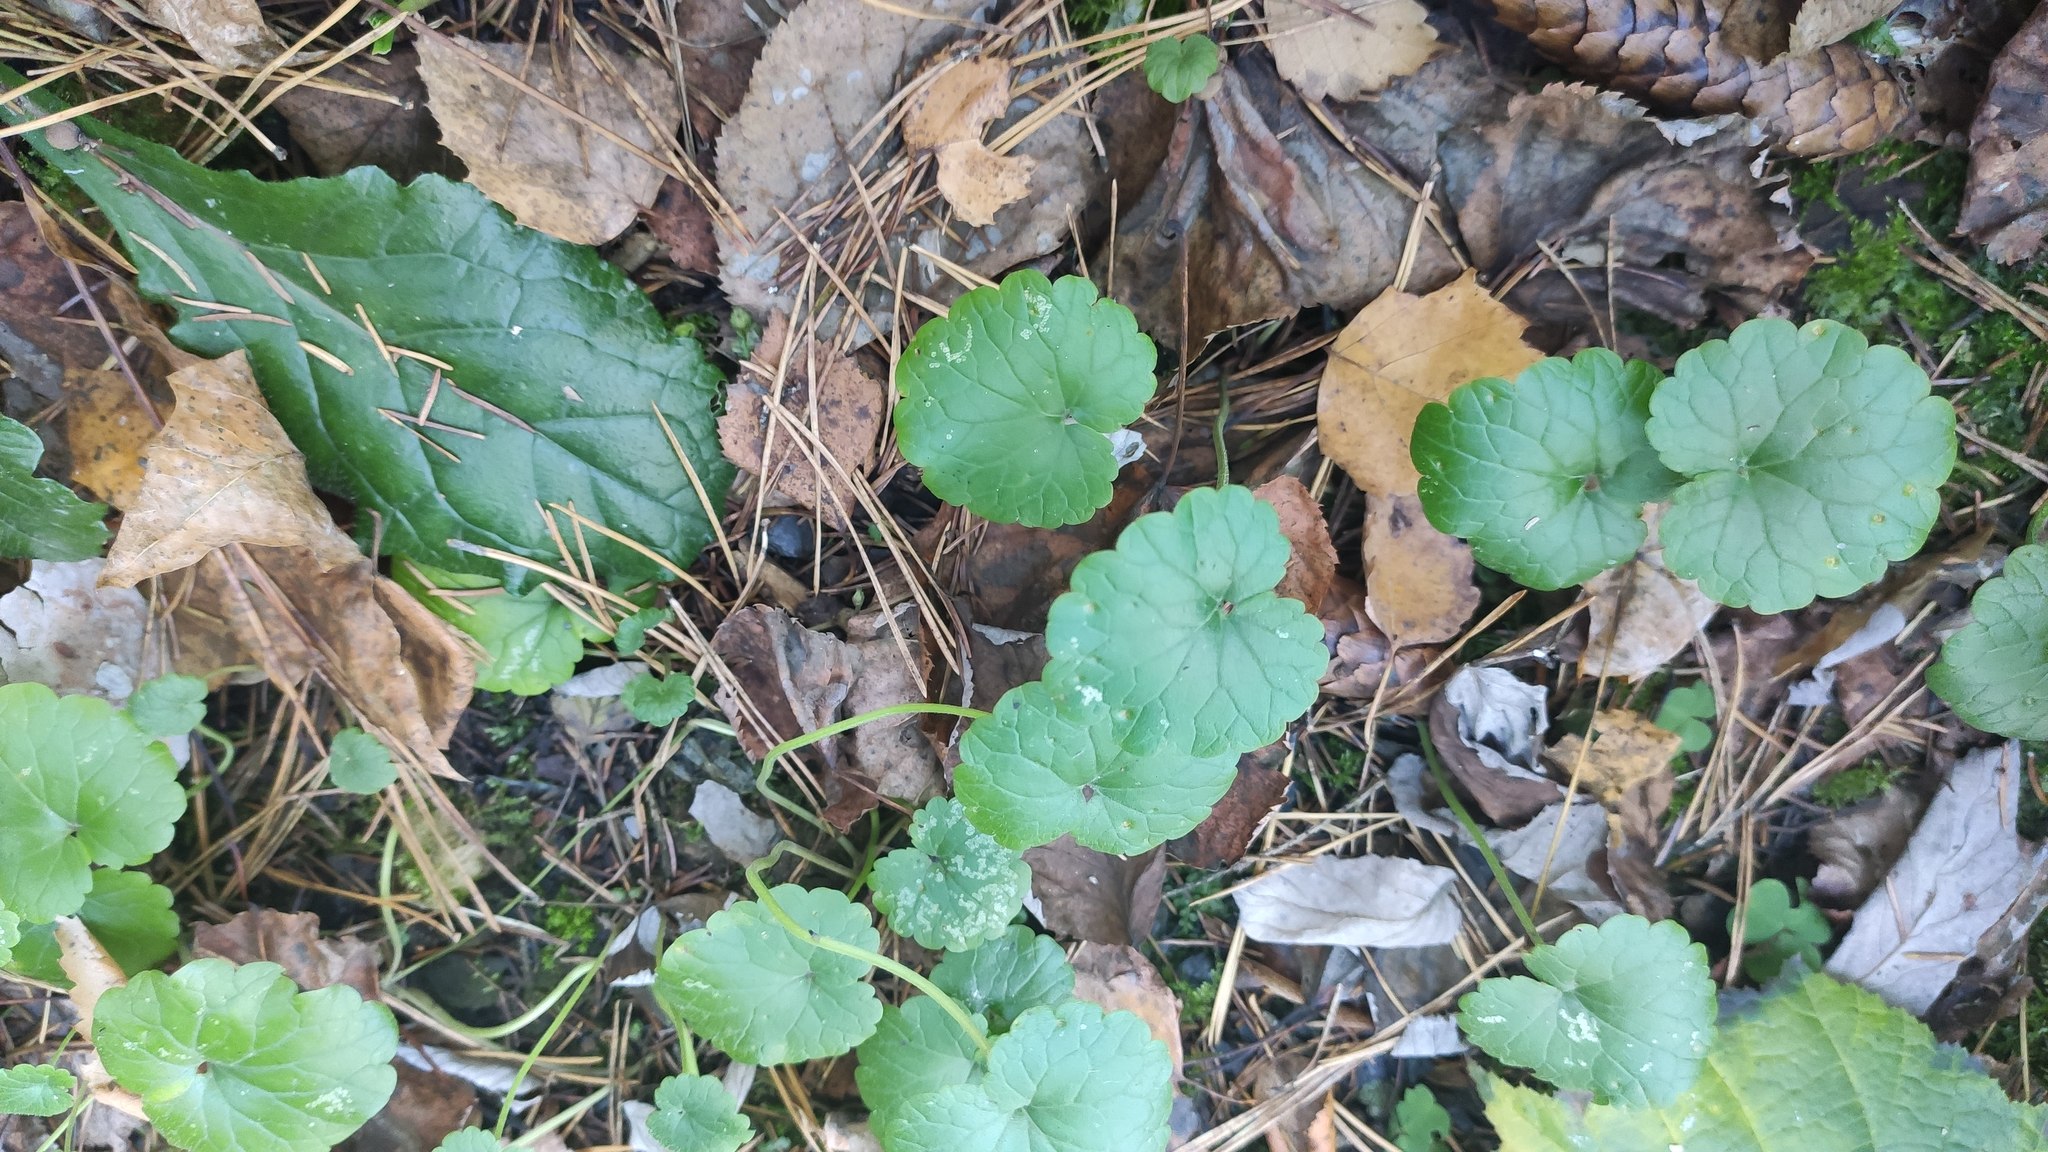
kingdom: Plantae
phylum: Tracheophyta
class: Magnoliopsida
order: Lamiales
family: Lamiaceae
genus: Glechoma
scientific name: Glechoma hederacea
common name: Ground ivy
